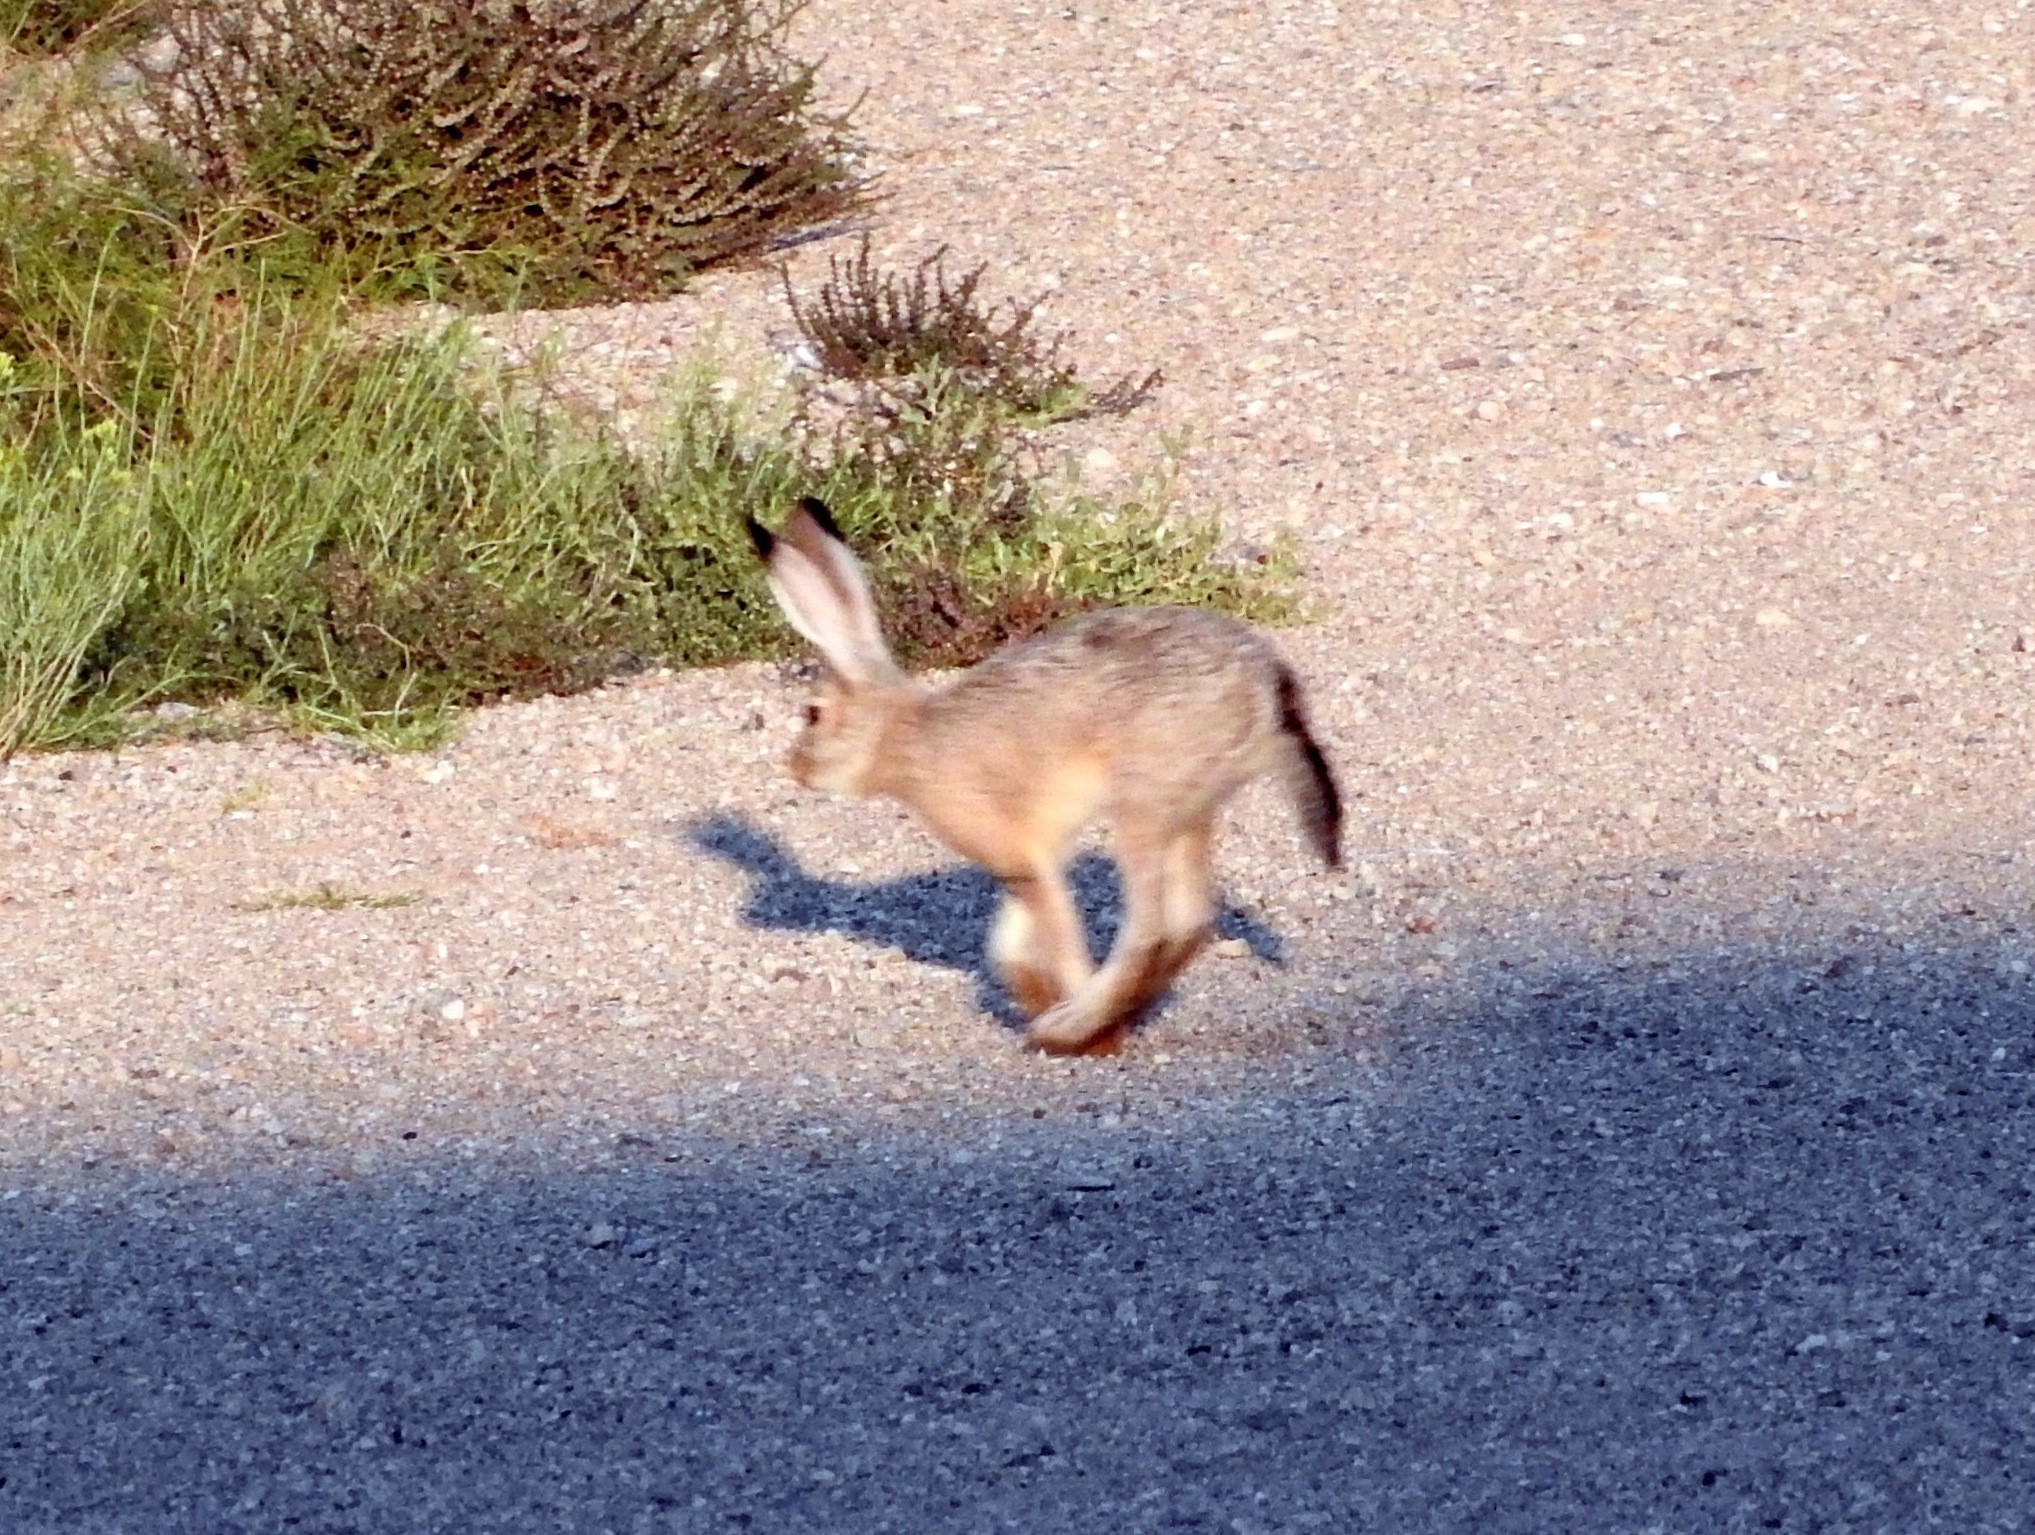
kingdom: Animalia
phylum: Chordata
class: Mammalia
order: Lagomorpha
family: Leporidae
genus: Lepus
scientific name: Lepus californicus
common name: Black-tailed jackrabbit
